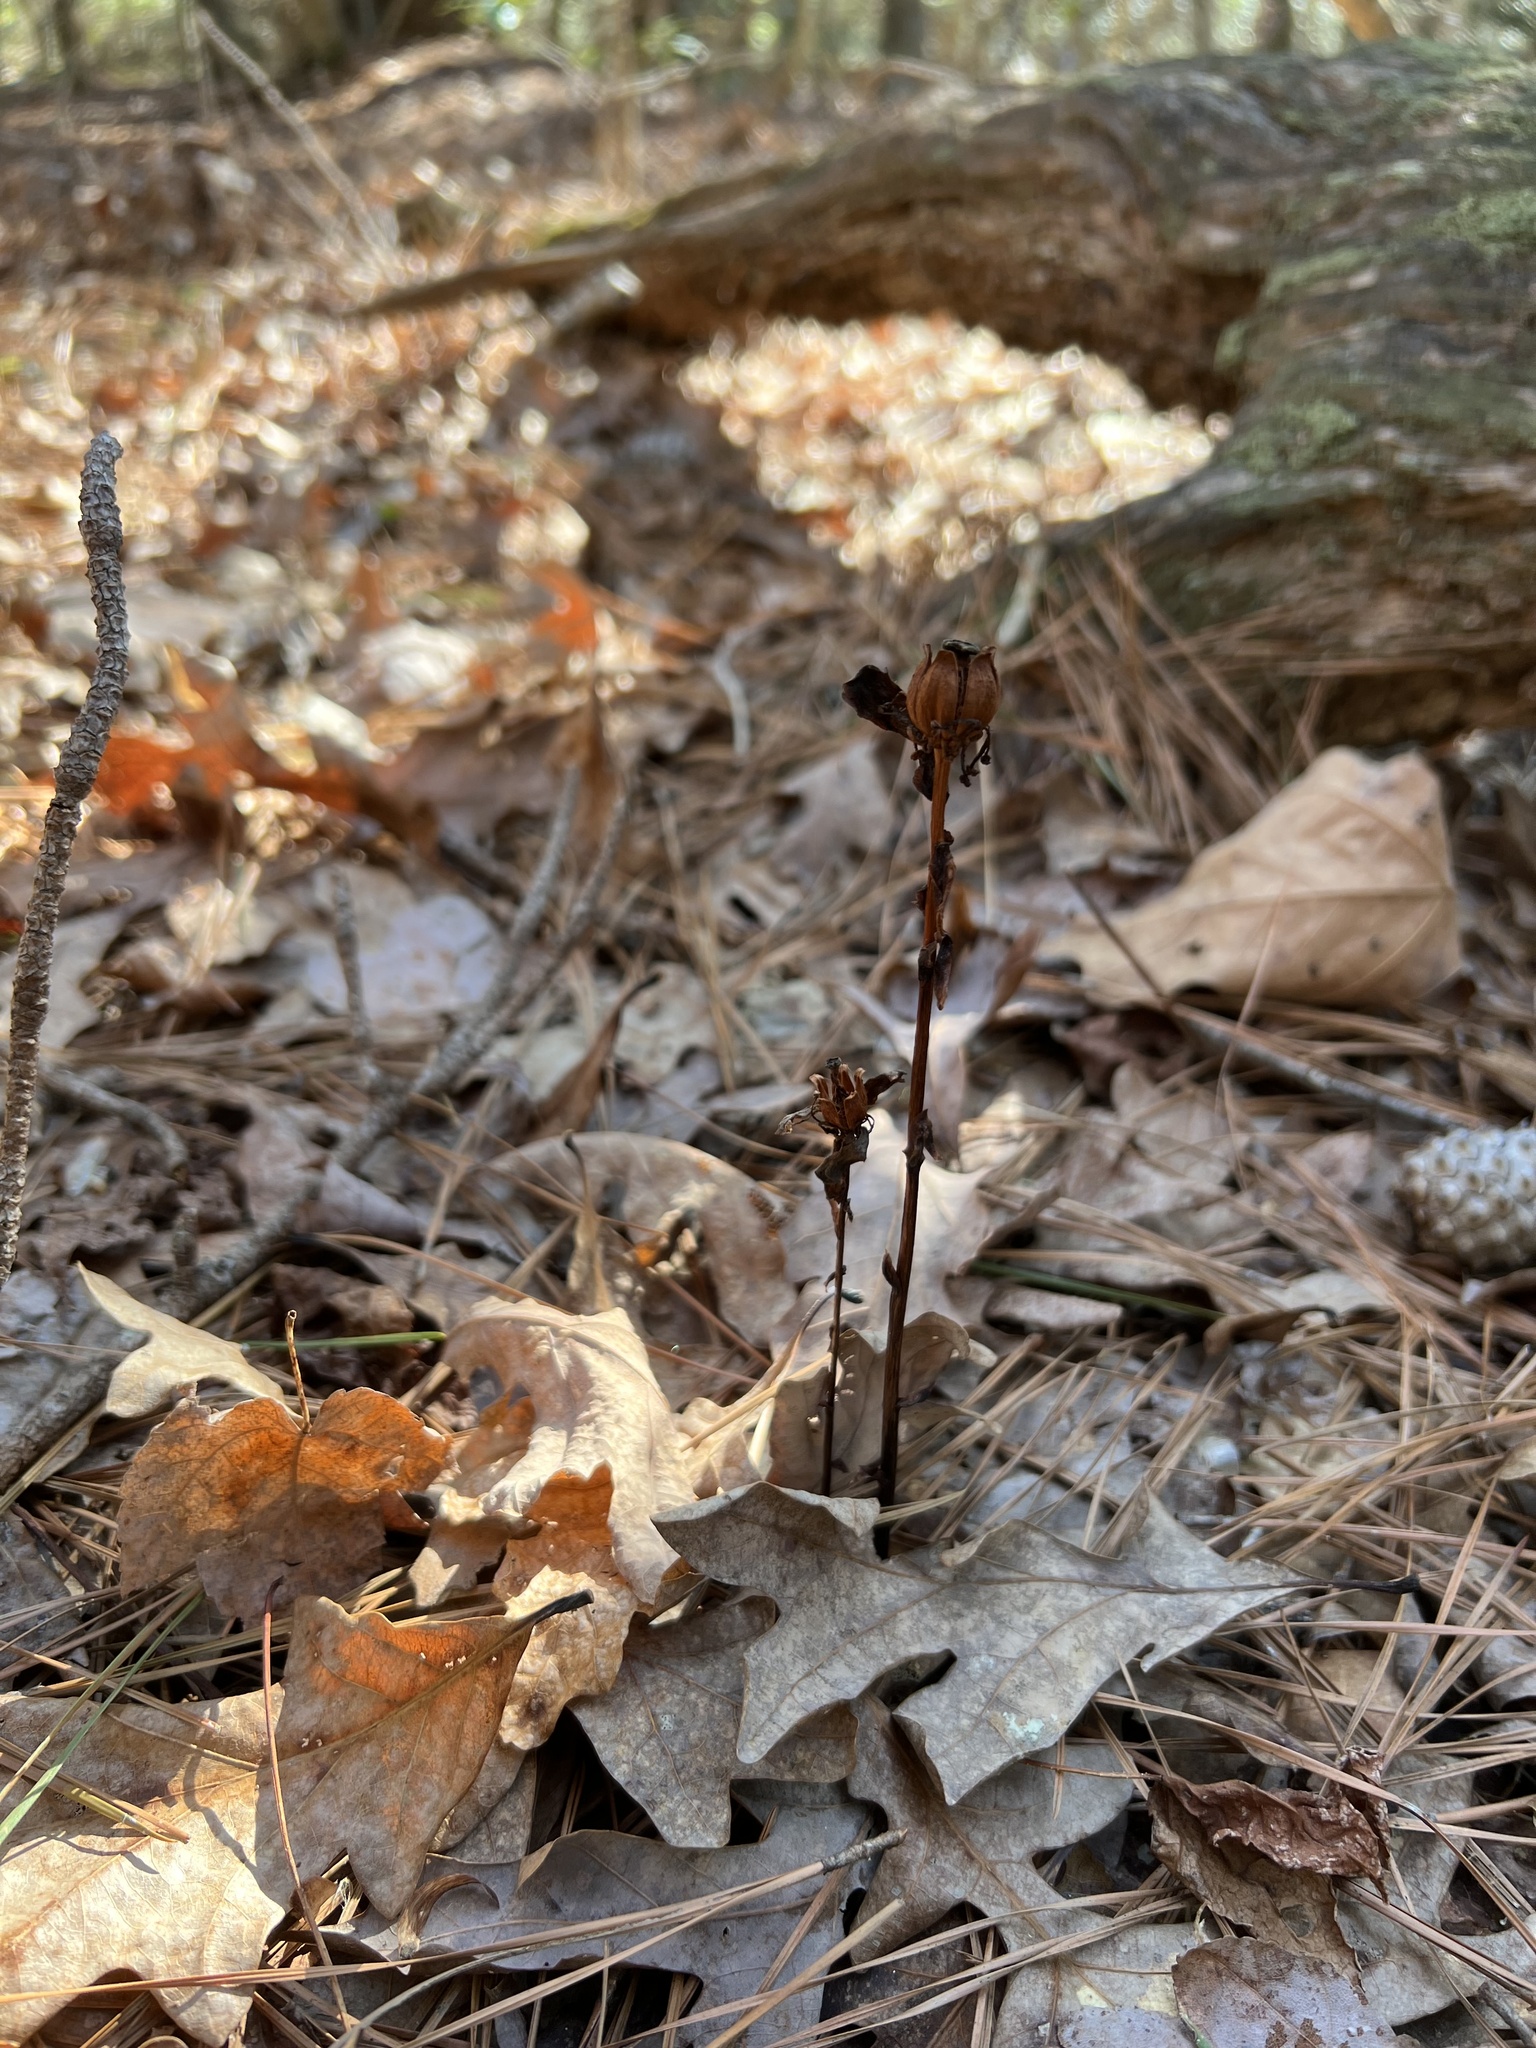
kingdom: Plantae
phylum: Tracheophyta
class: Magnoliopsida
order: Ericales
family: Ericaceae
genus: Monotropa
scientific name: Monotropa uniflora
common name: Convulsion root
